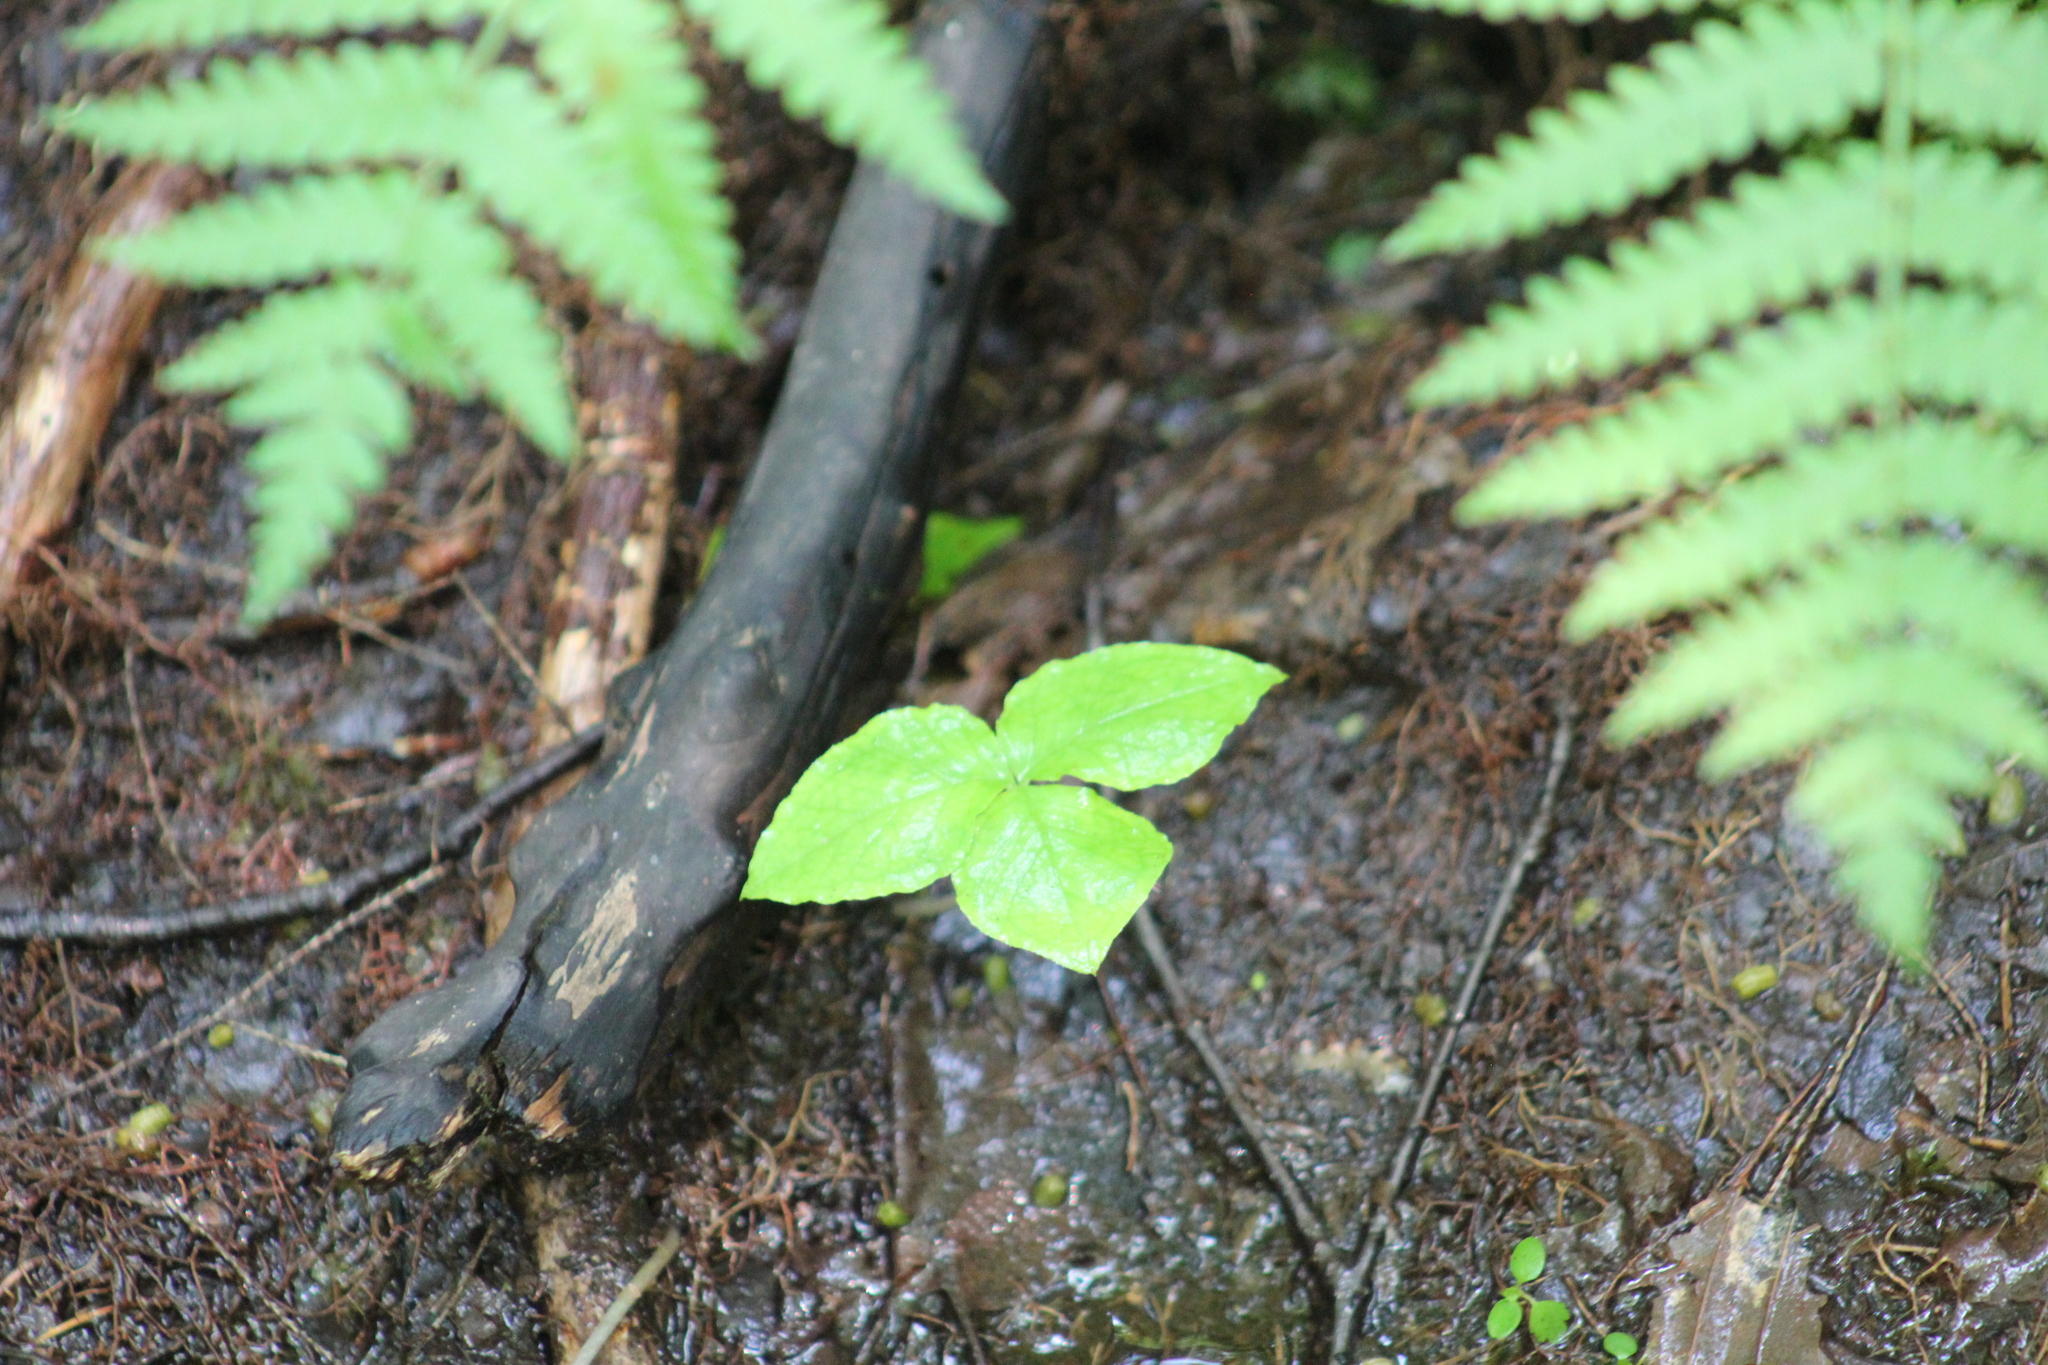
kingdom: Plantae
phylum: Tracheophyta
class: Liliopsida
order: Alismatales
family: Araceae
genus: Arisaema
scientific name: Arisaema triphyllum
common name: Jack-in-the-pulpit
